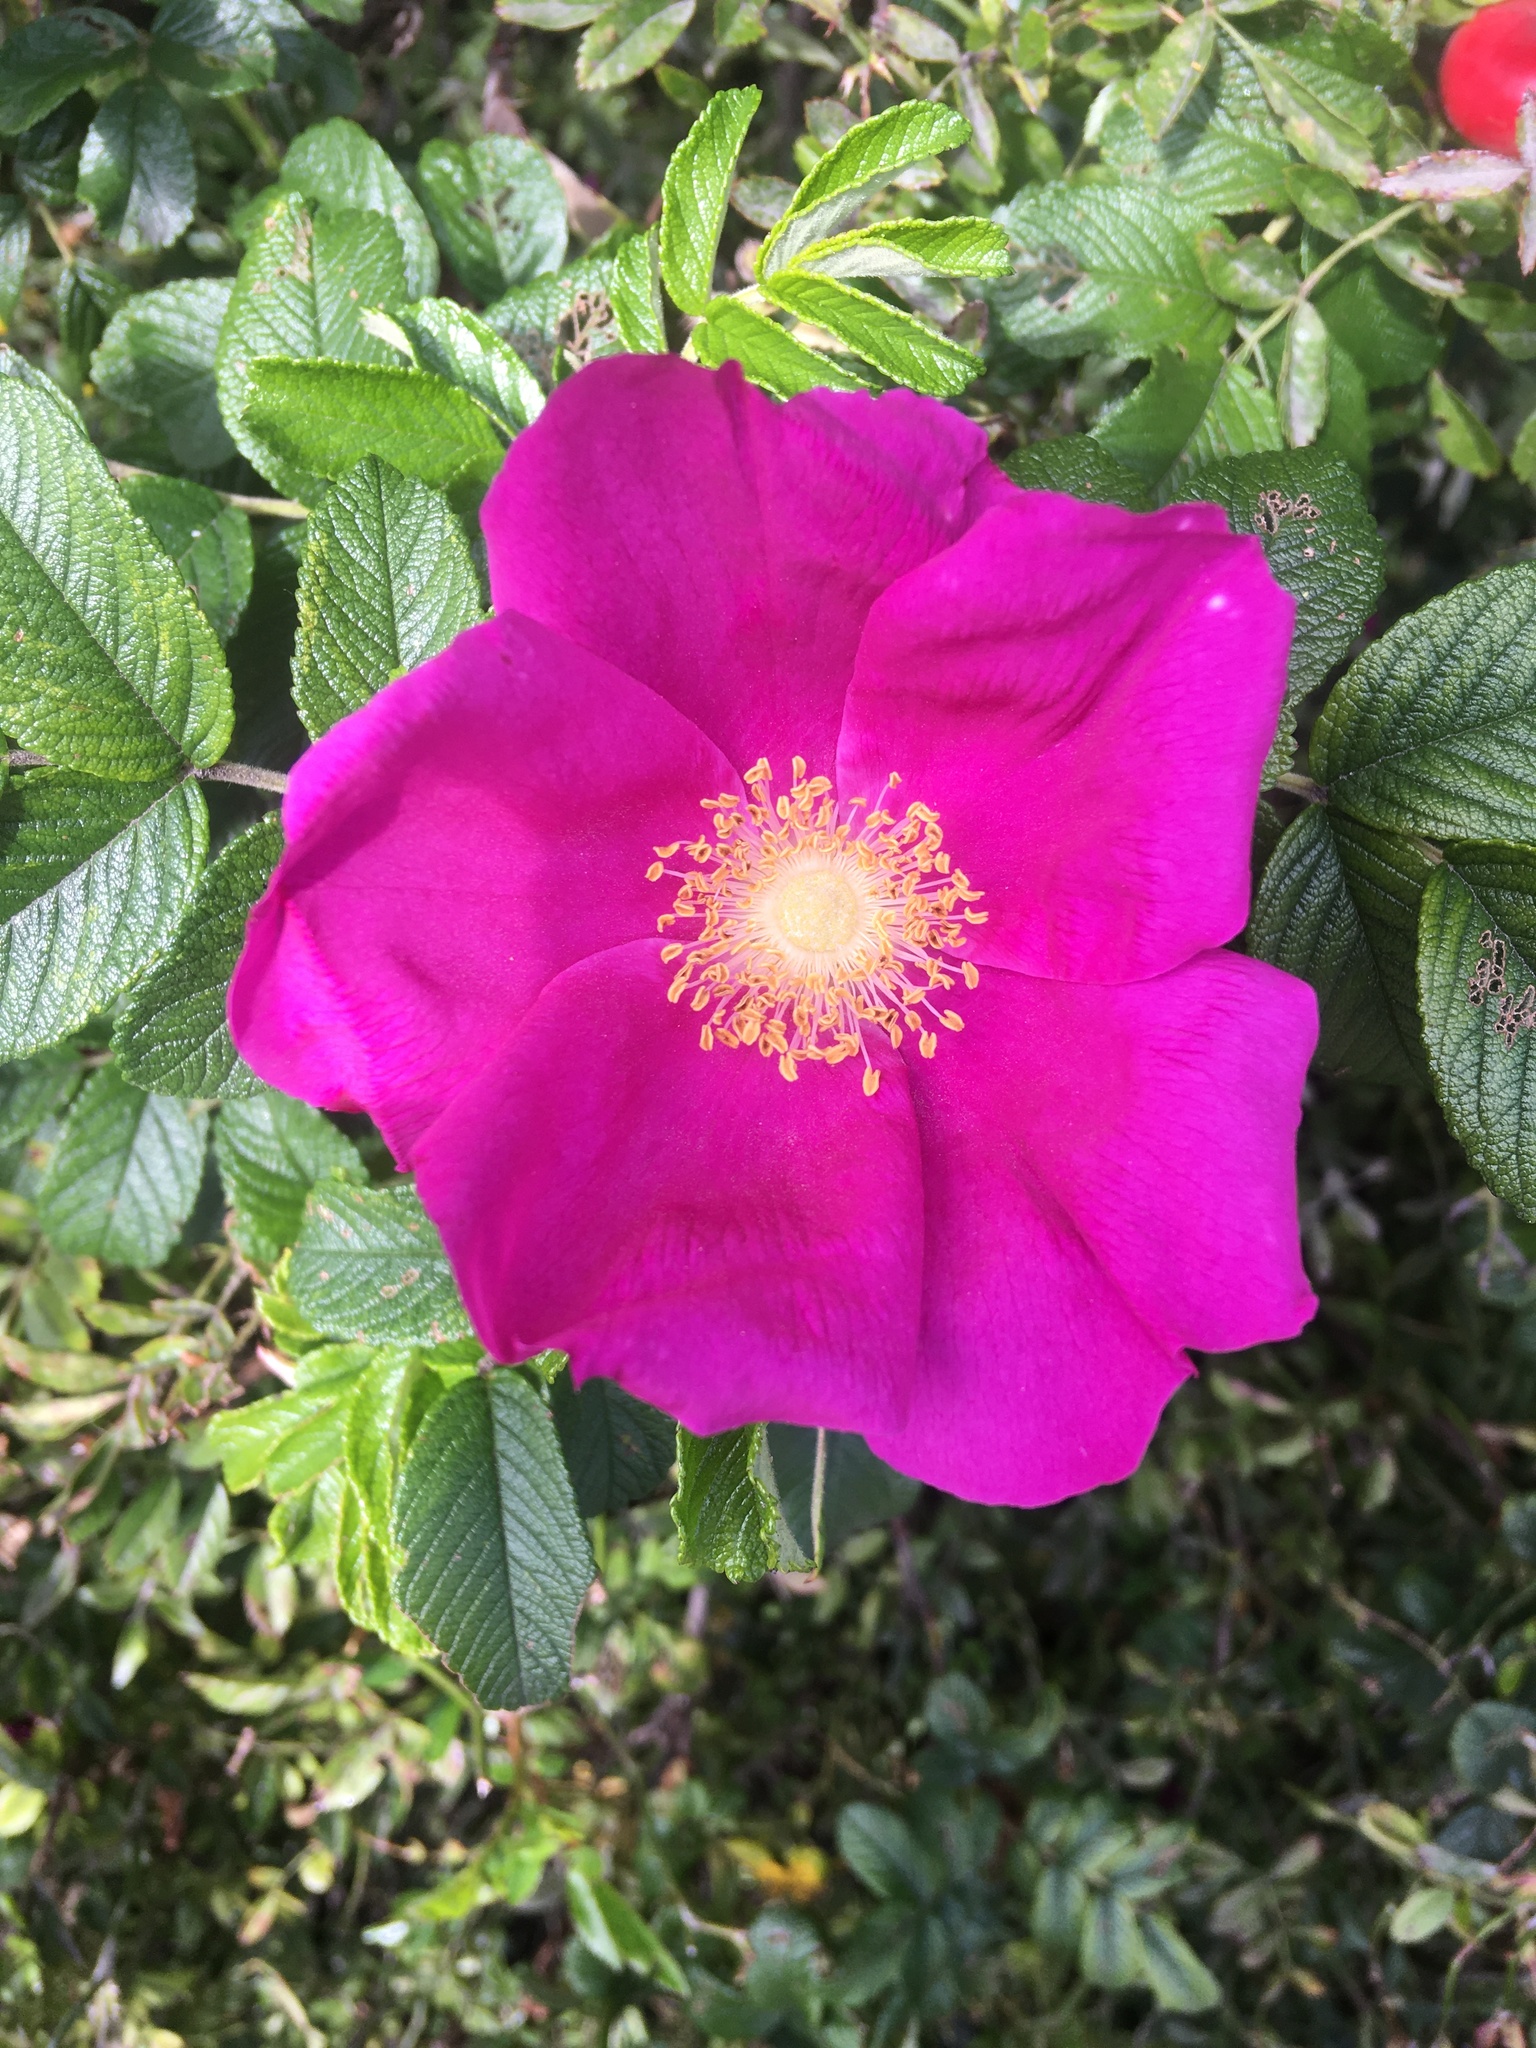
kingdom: Plantae
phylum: Tracheophyta
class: Magnoliopsida
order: Rosales
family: Rosaceae
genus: Rosa
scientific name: Rosa rugosa
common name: Japanese rose
